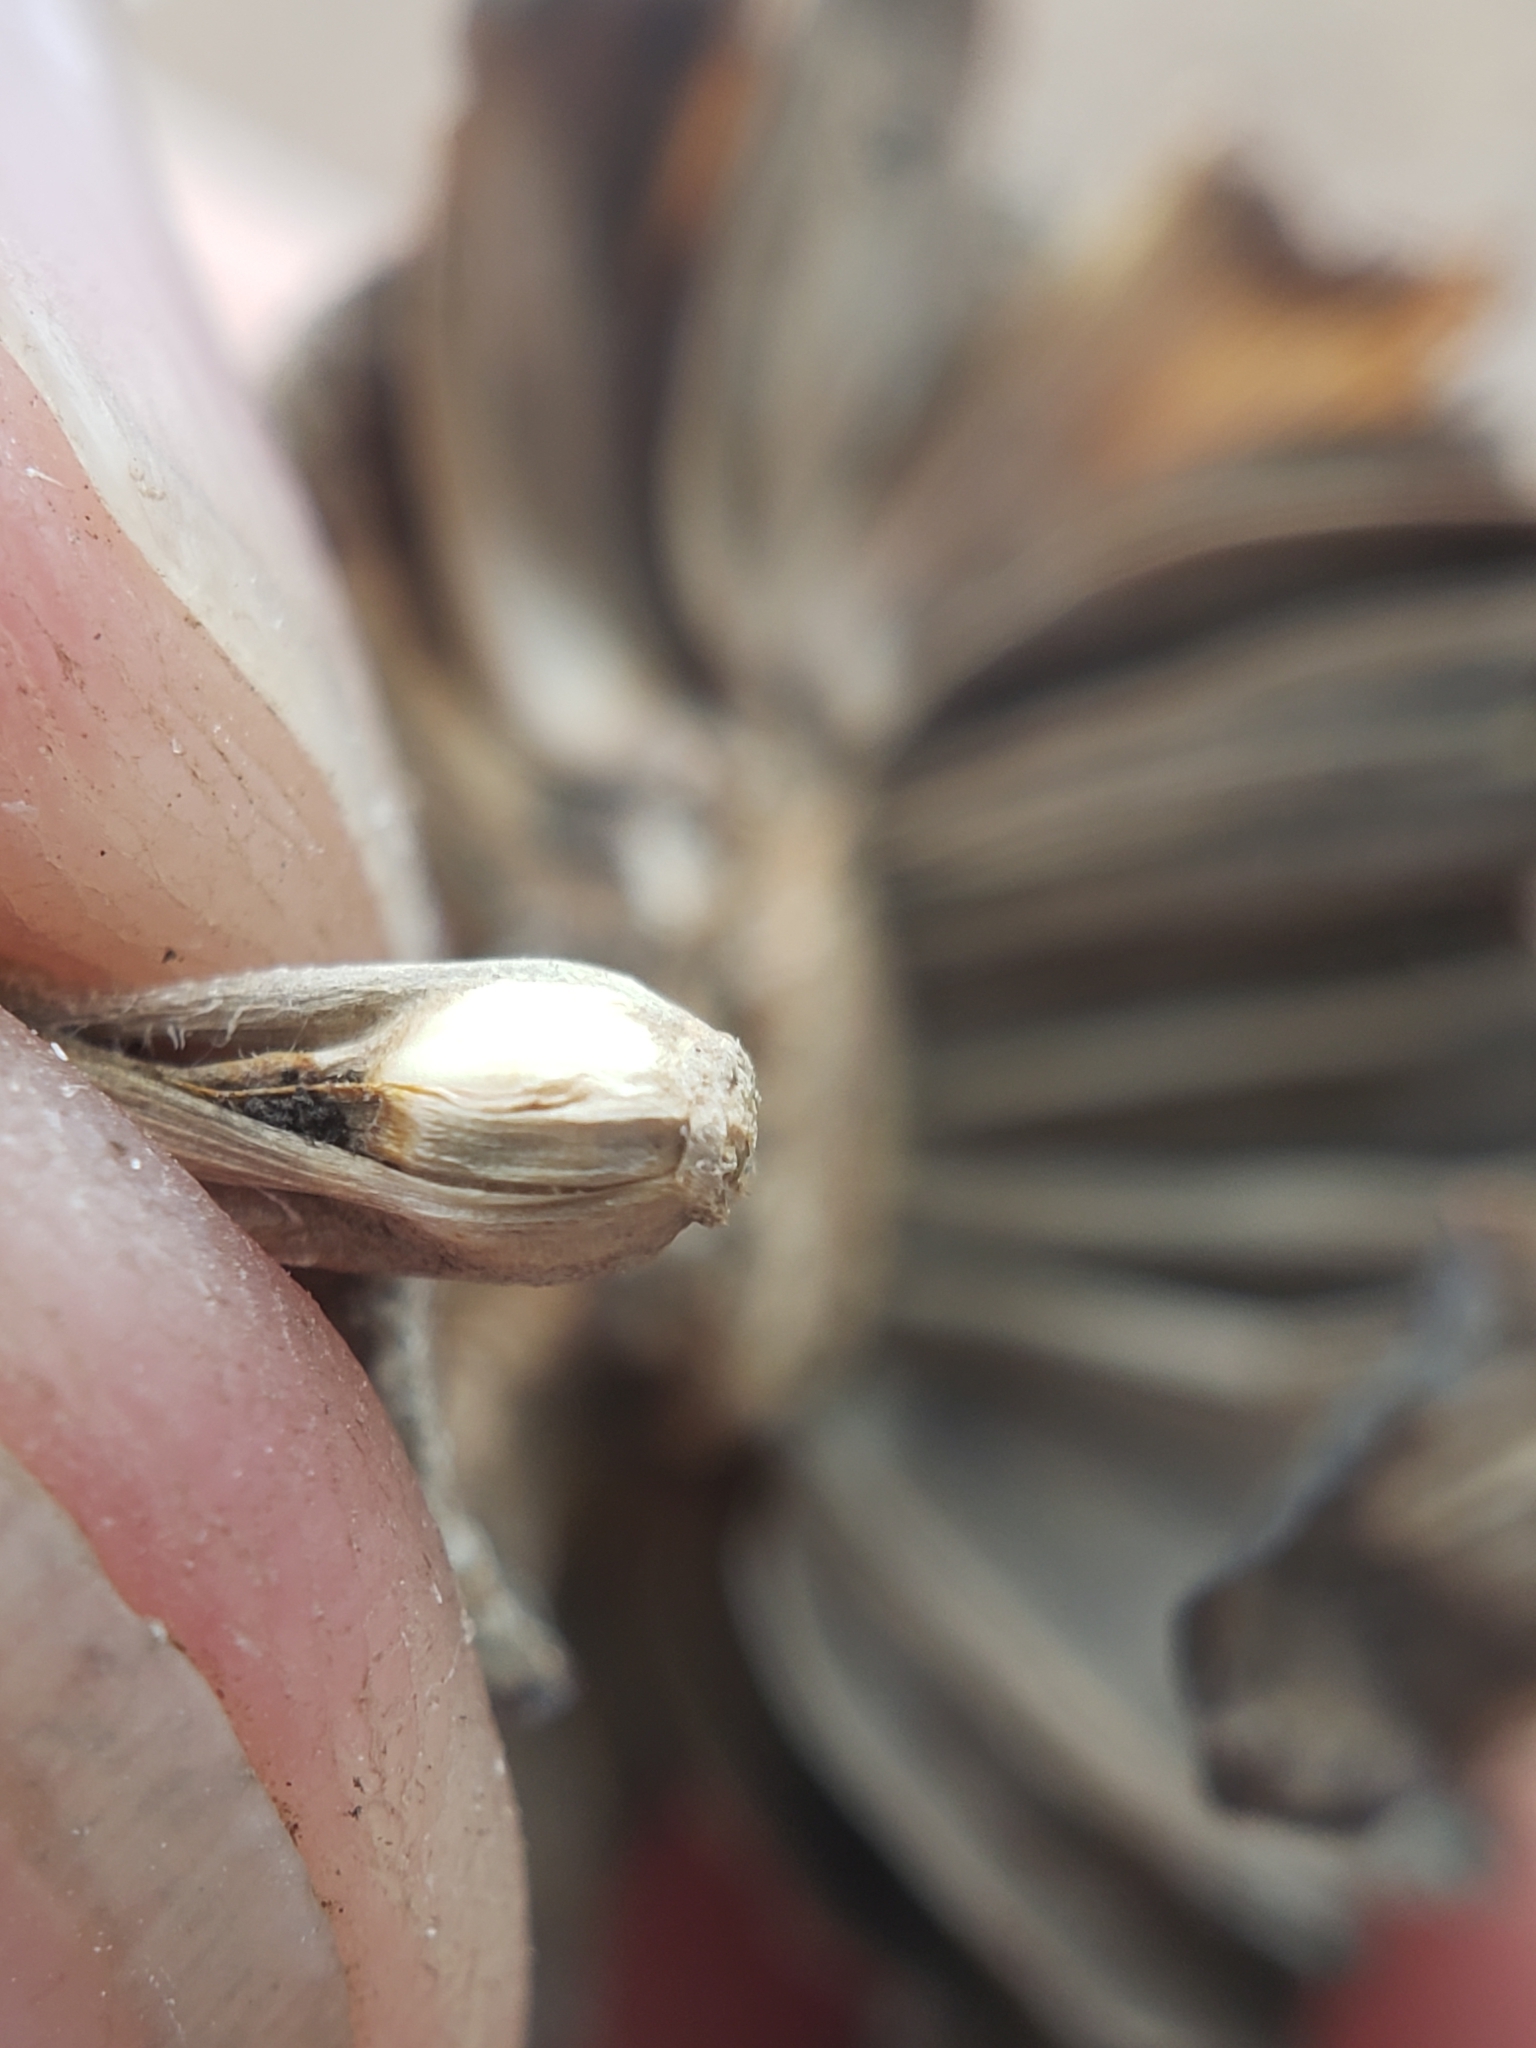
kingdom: Animalia
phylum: Arthropoda
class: Insecta
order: Hymenoptera
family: Cynipidae
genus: Antistrophus
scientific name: Antistrophus
